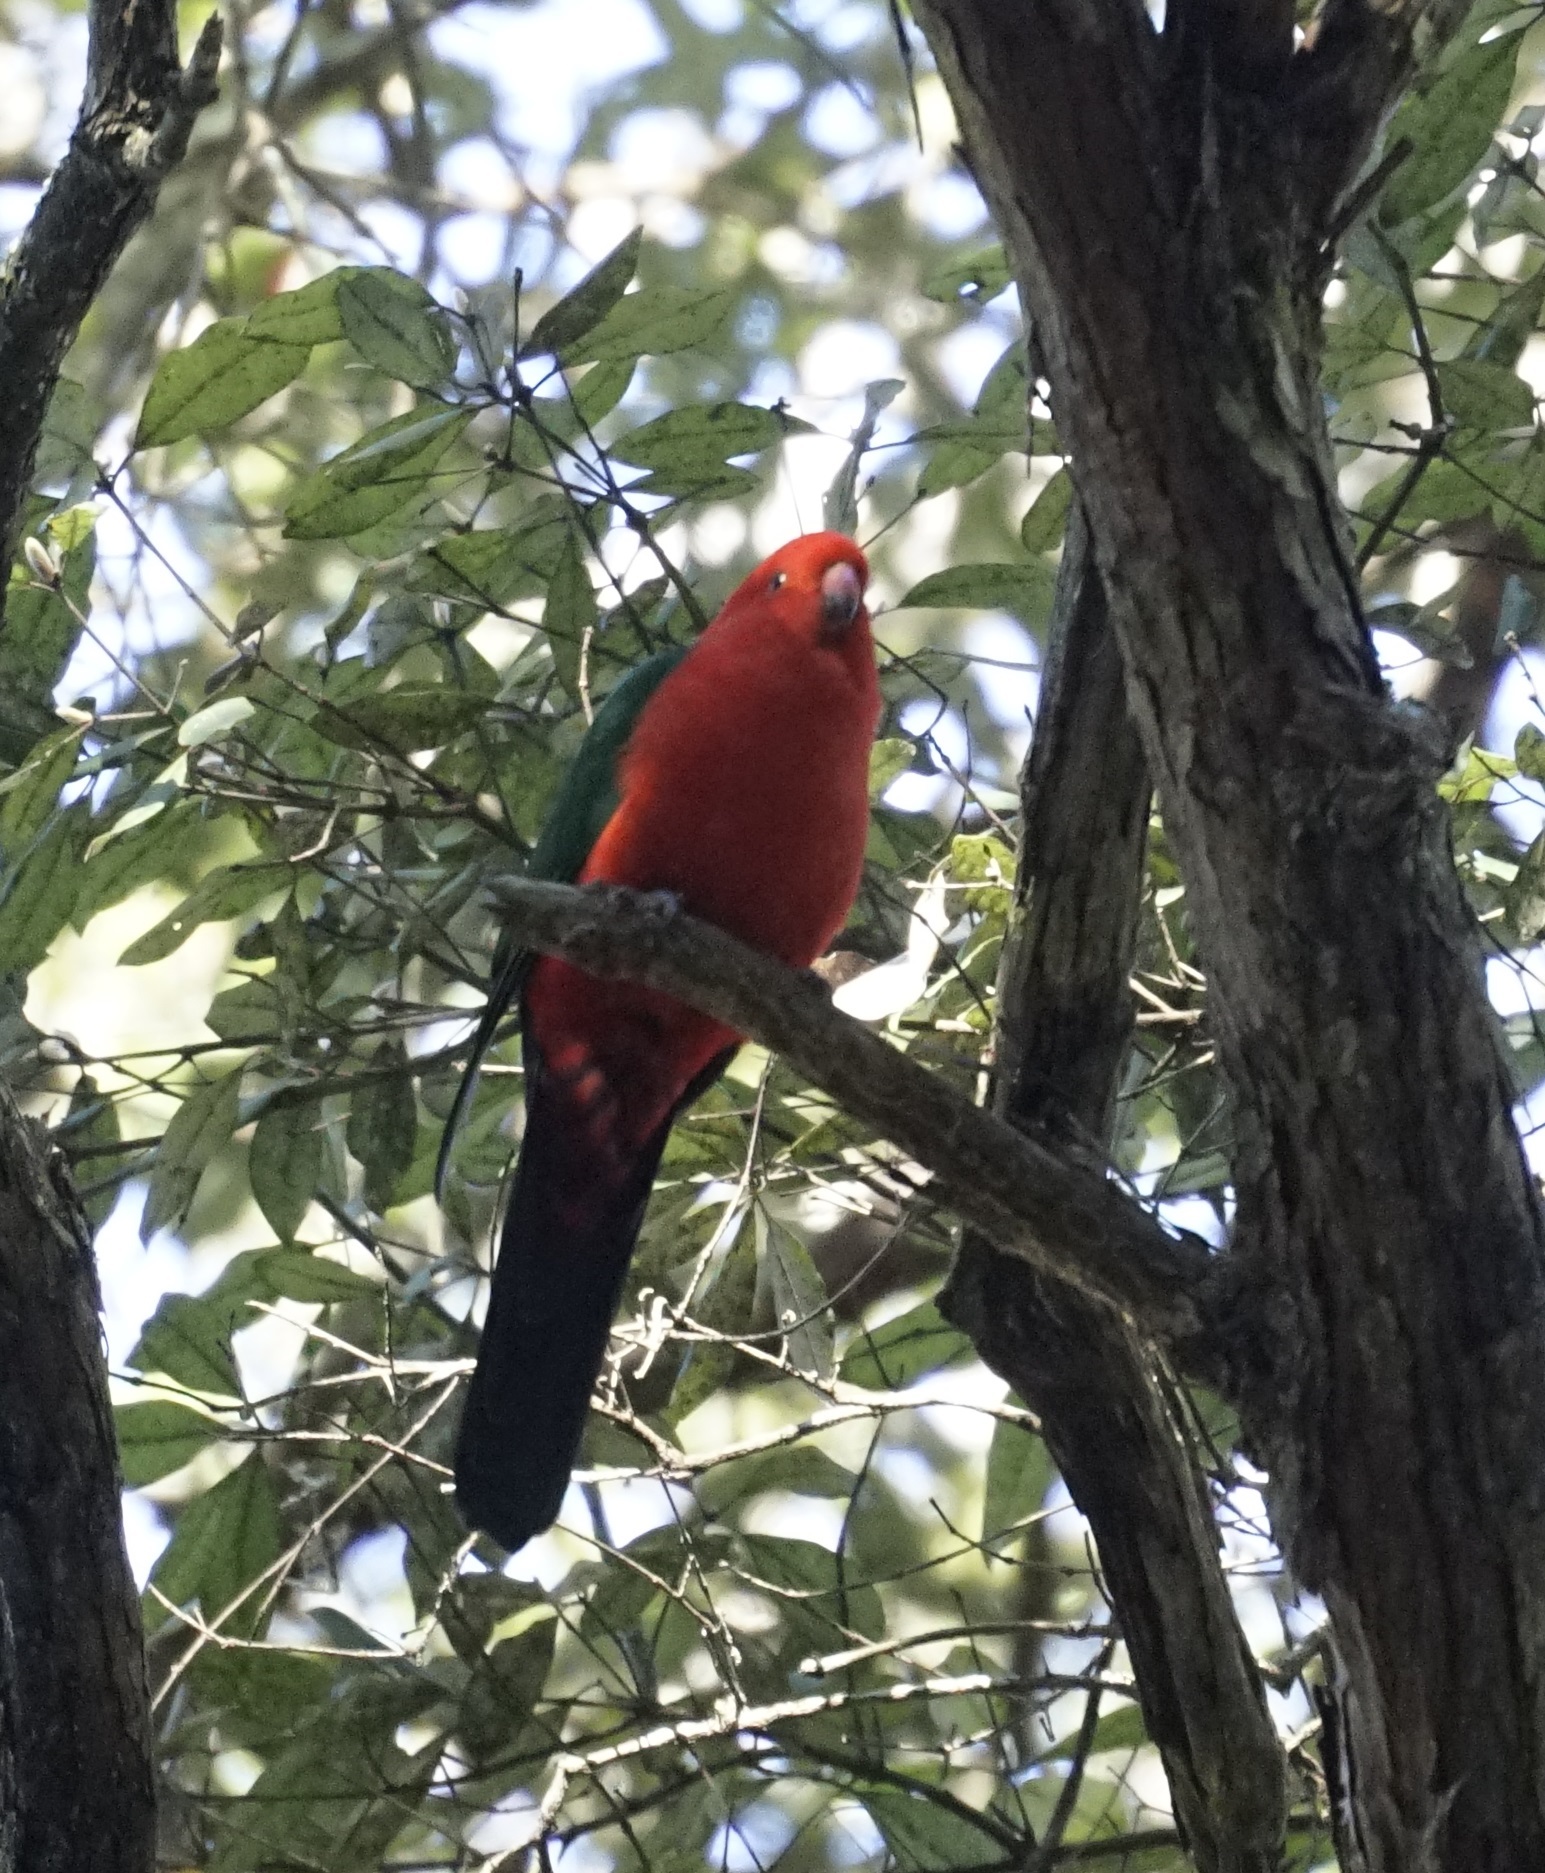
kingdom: Animalia
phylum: Chordata
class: Aves
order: Psittaciformes
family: Psittacidae
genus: Alisterus
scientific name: Alisterus scapularis
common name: Australian king parrot
